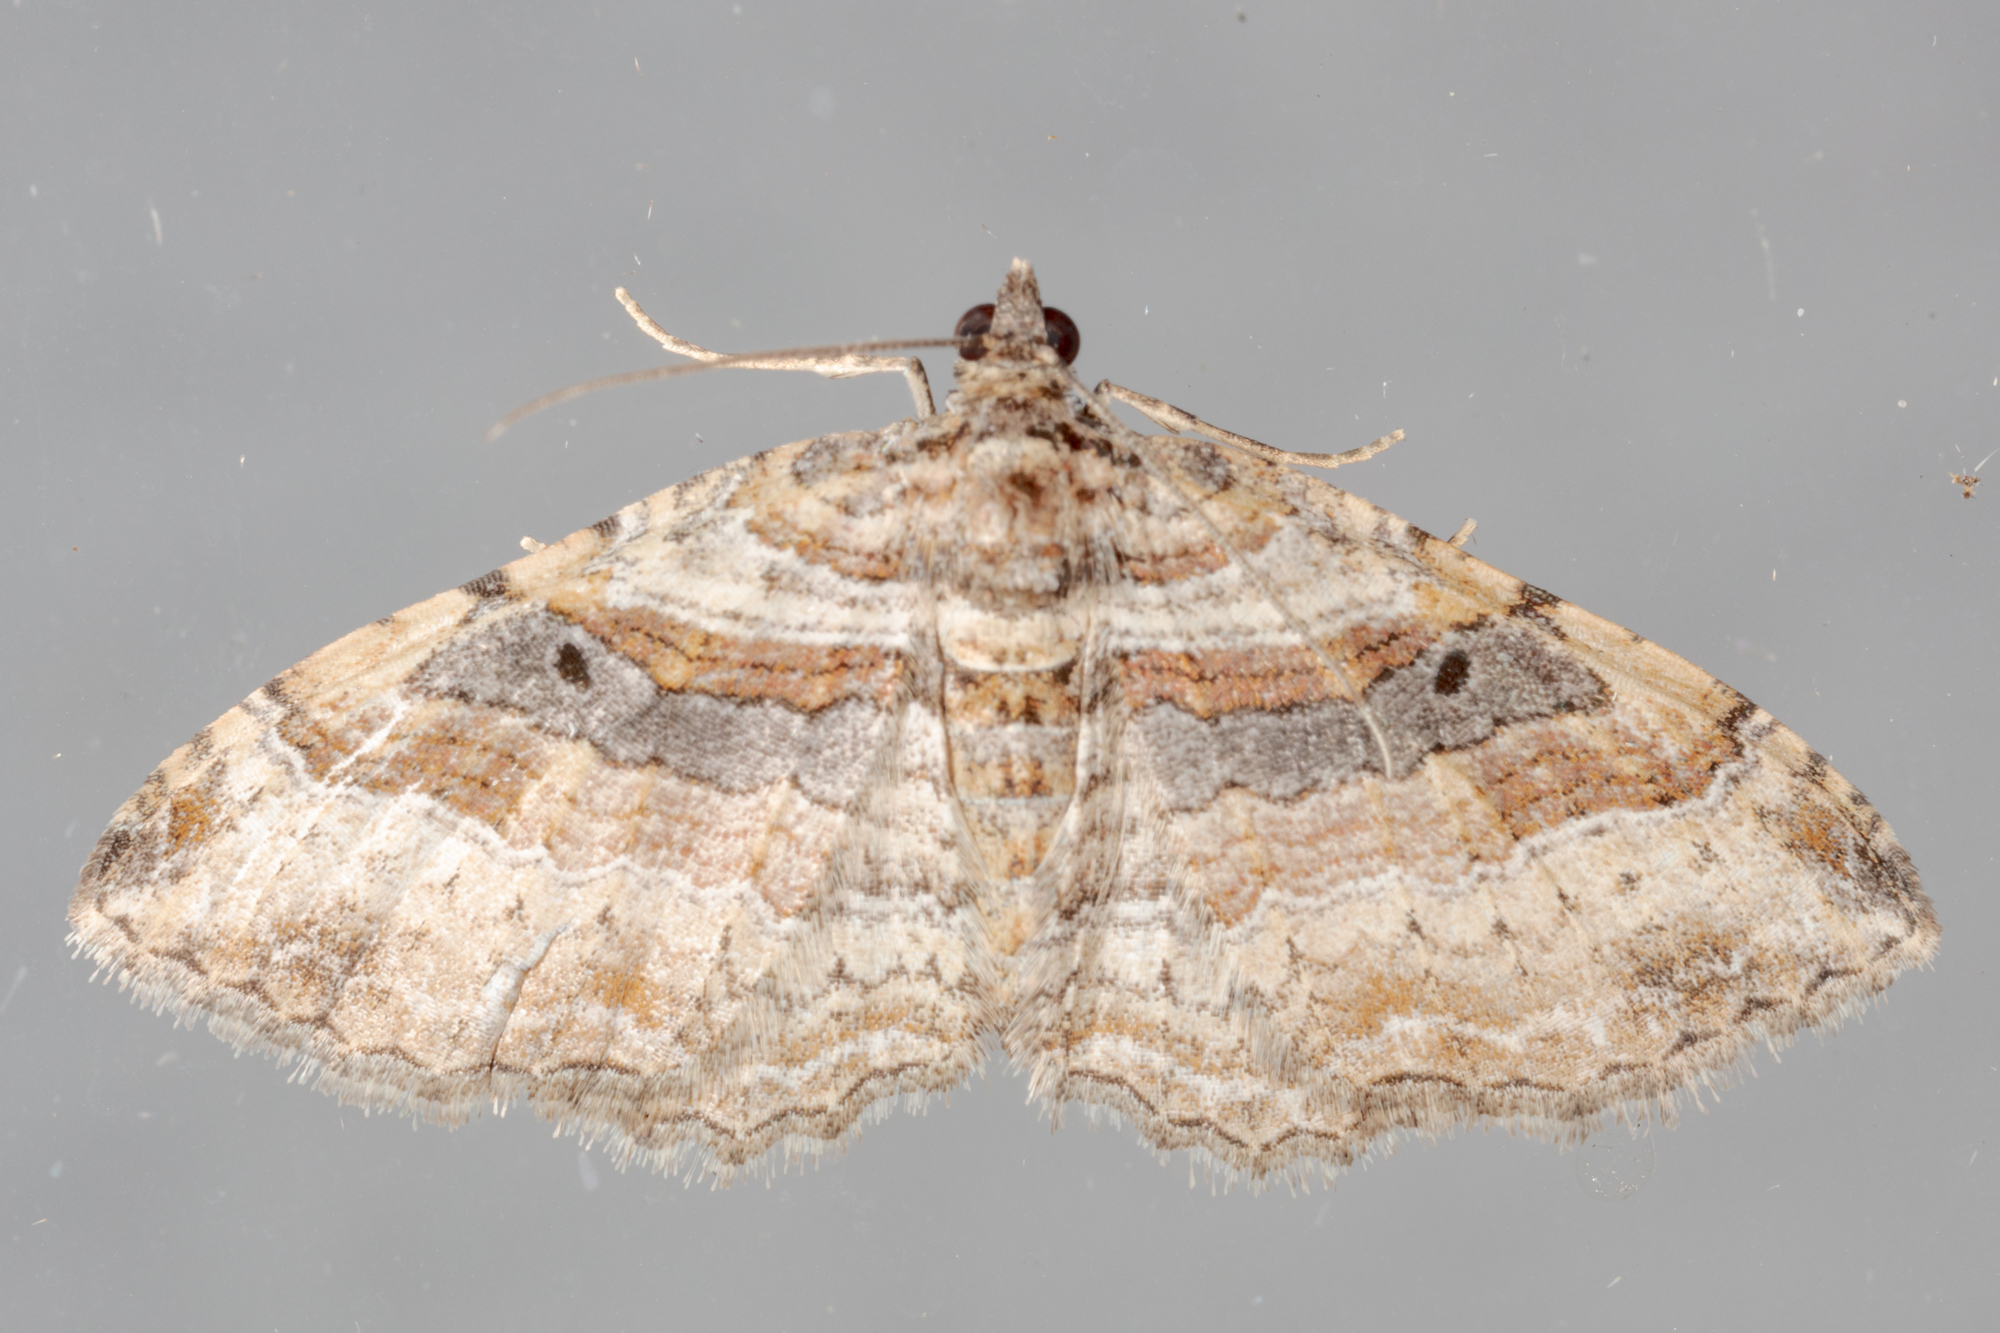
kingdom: Animalia
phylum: Arthropoda
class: Insecta
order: Lepidoptera
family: Geometridae
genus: Costaconvexa
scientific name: Costaconvexa centrostrigaria
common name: Bent-line carpet
